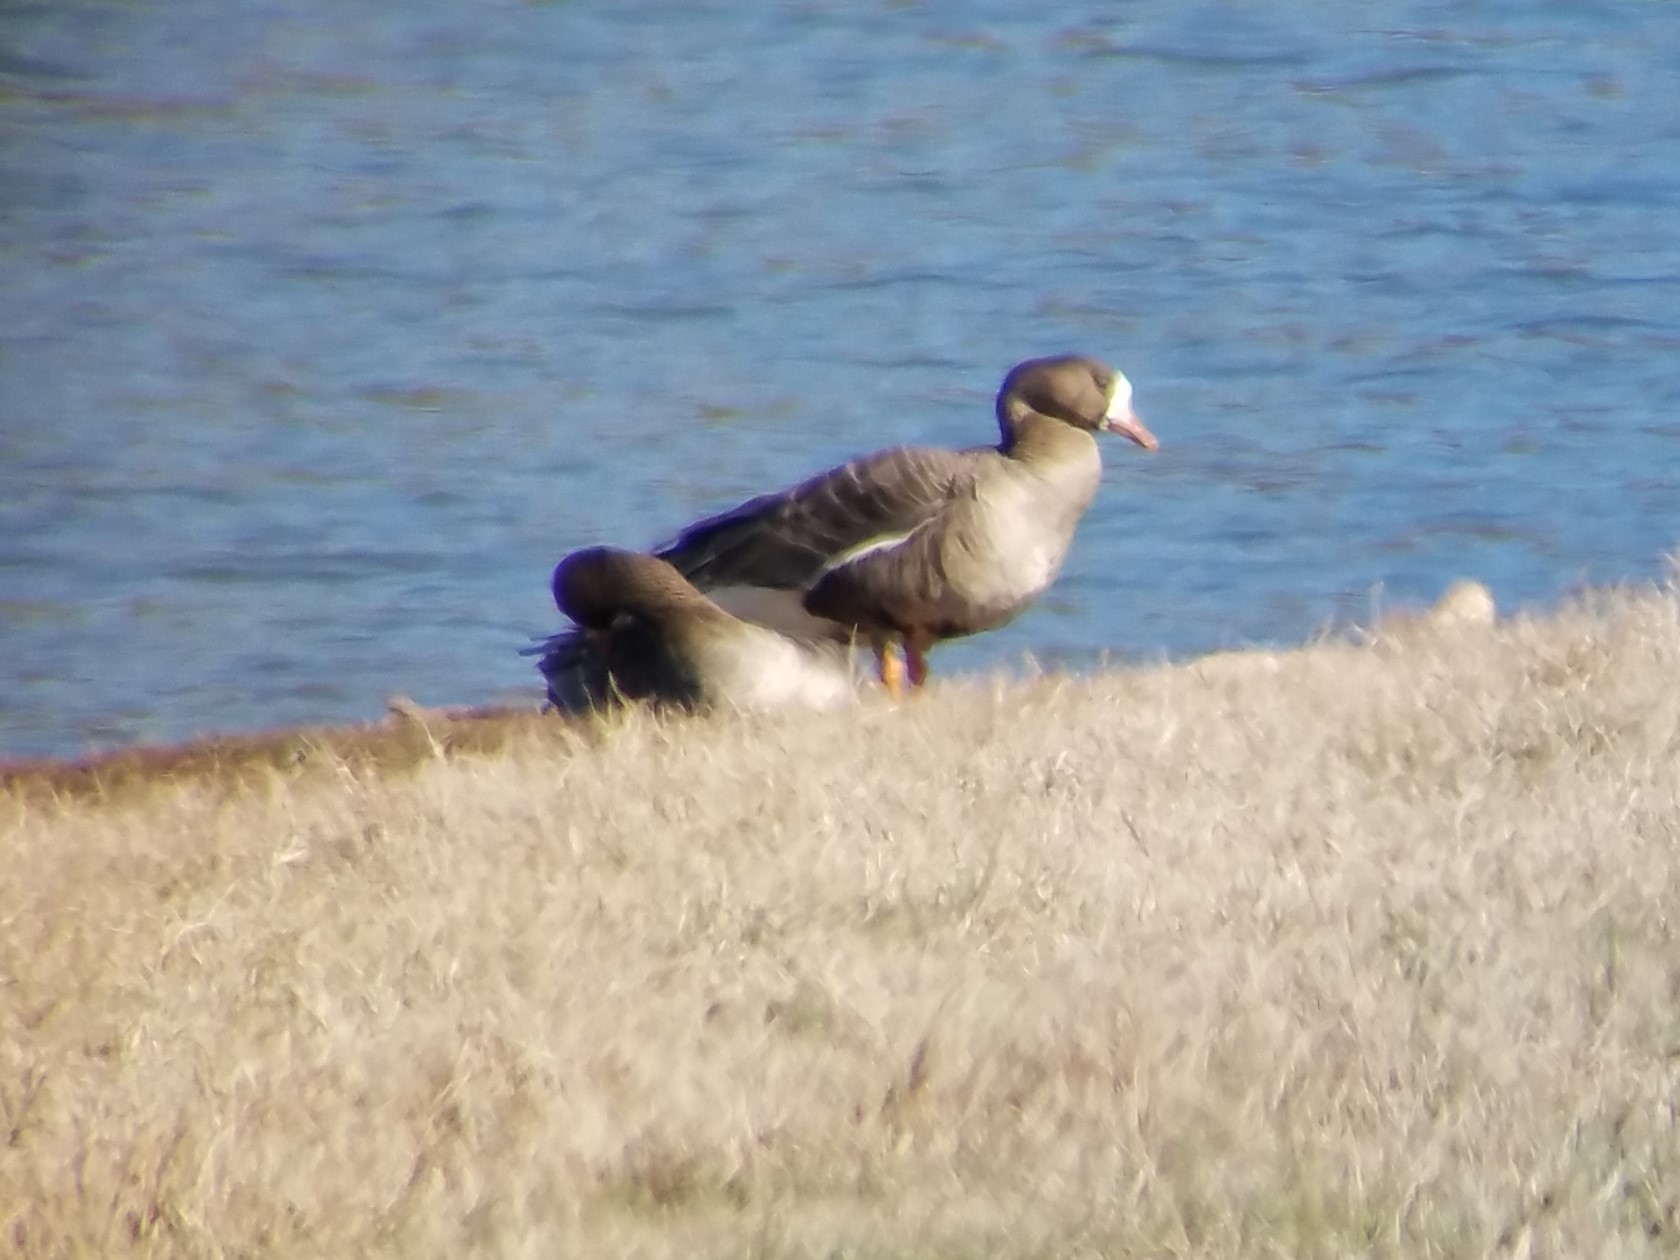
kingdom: Animalia
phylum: Chordata
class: Aves
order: Anseriformes
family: Anatidae
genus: Anser
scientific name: Anser albifrons
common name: Greater white-fronted goose
